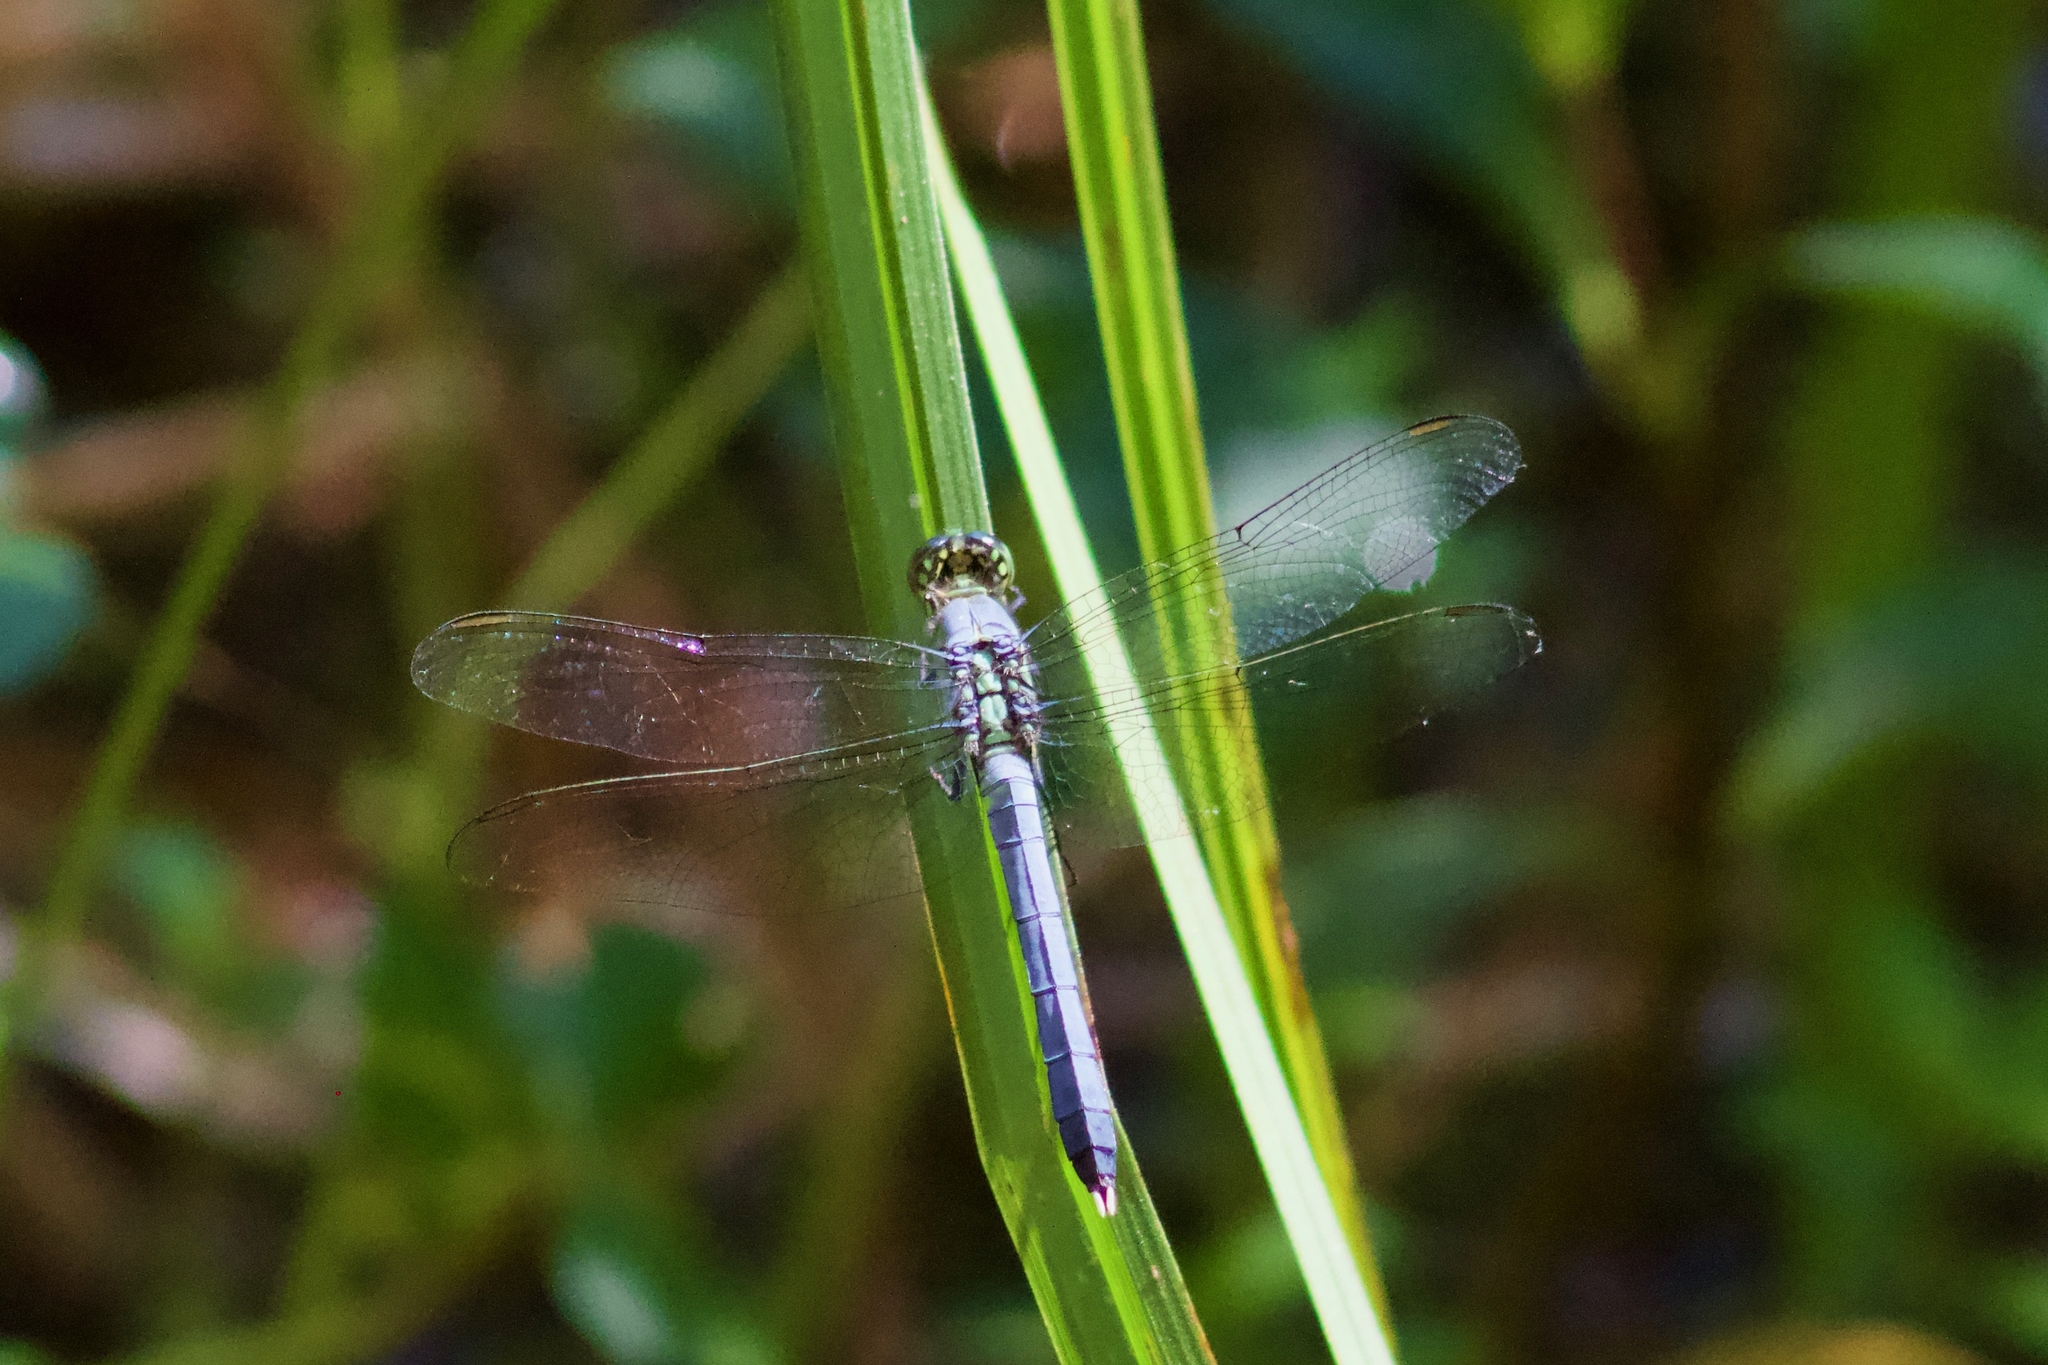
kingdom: Animalia
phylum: Arthropoda
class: Insecta
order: Odonata
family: Libellulidae
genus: Erythemis
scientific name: Erythemis simplicicollis
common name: Eastern pondhawk
